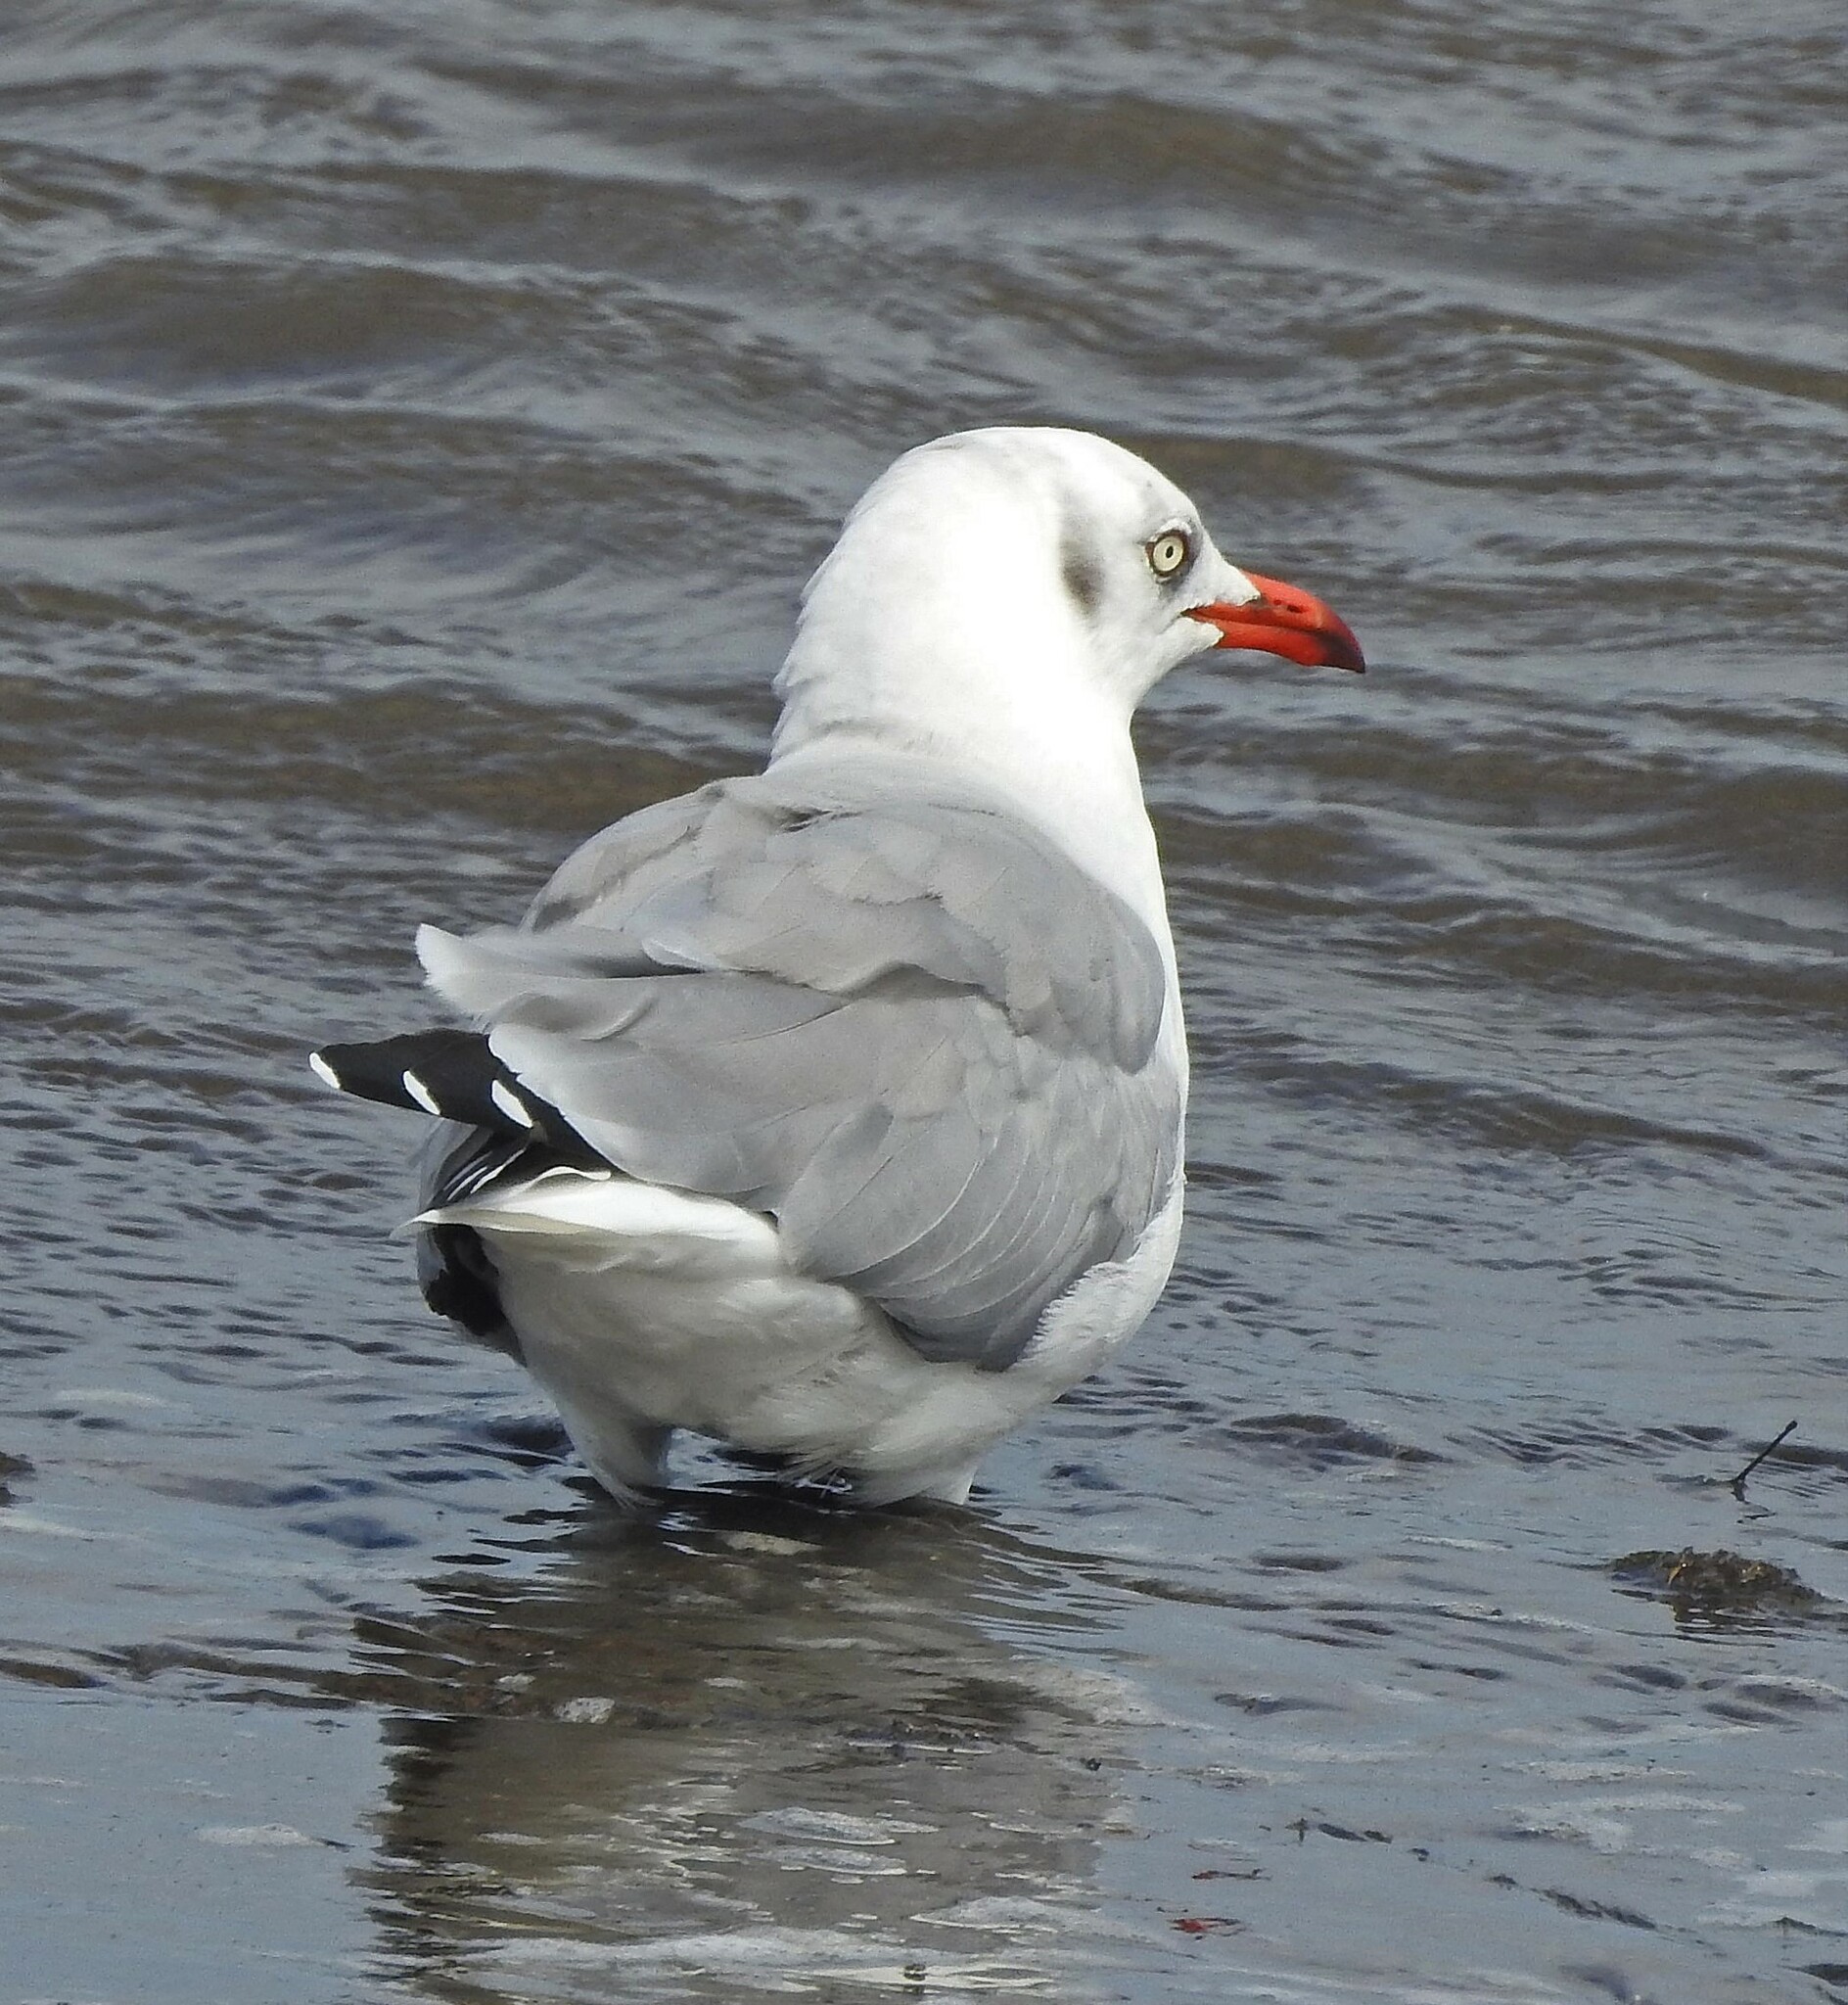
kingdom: Animalia
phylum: Chordata
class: Aves
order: Charadriiformes
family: Laridae
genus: Chroicocephalus
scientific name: Chroicocephalus cirrocephalus
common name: Grey-headed gull
